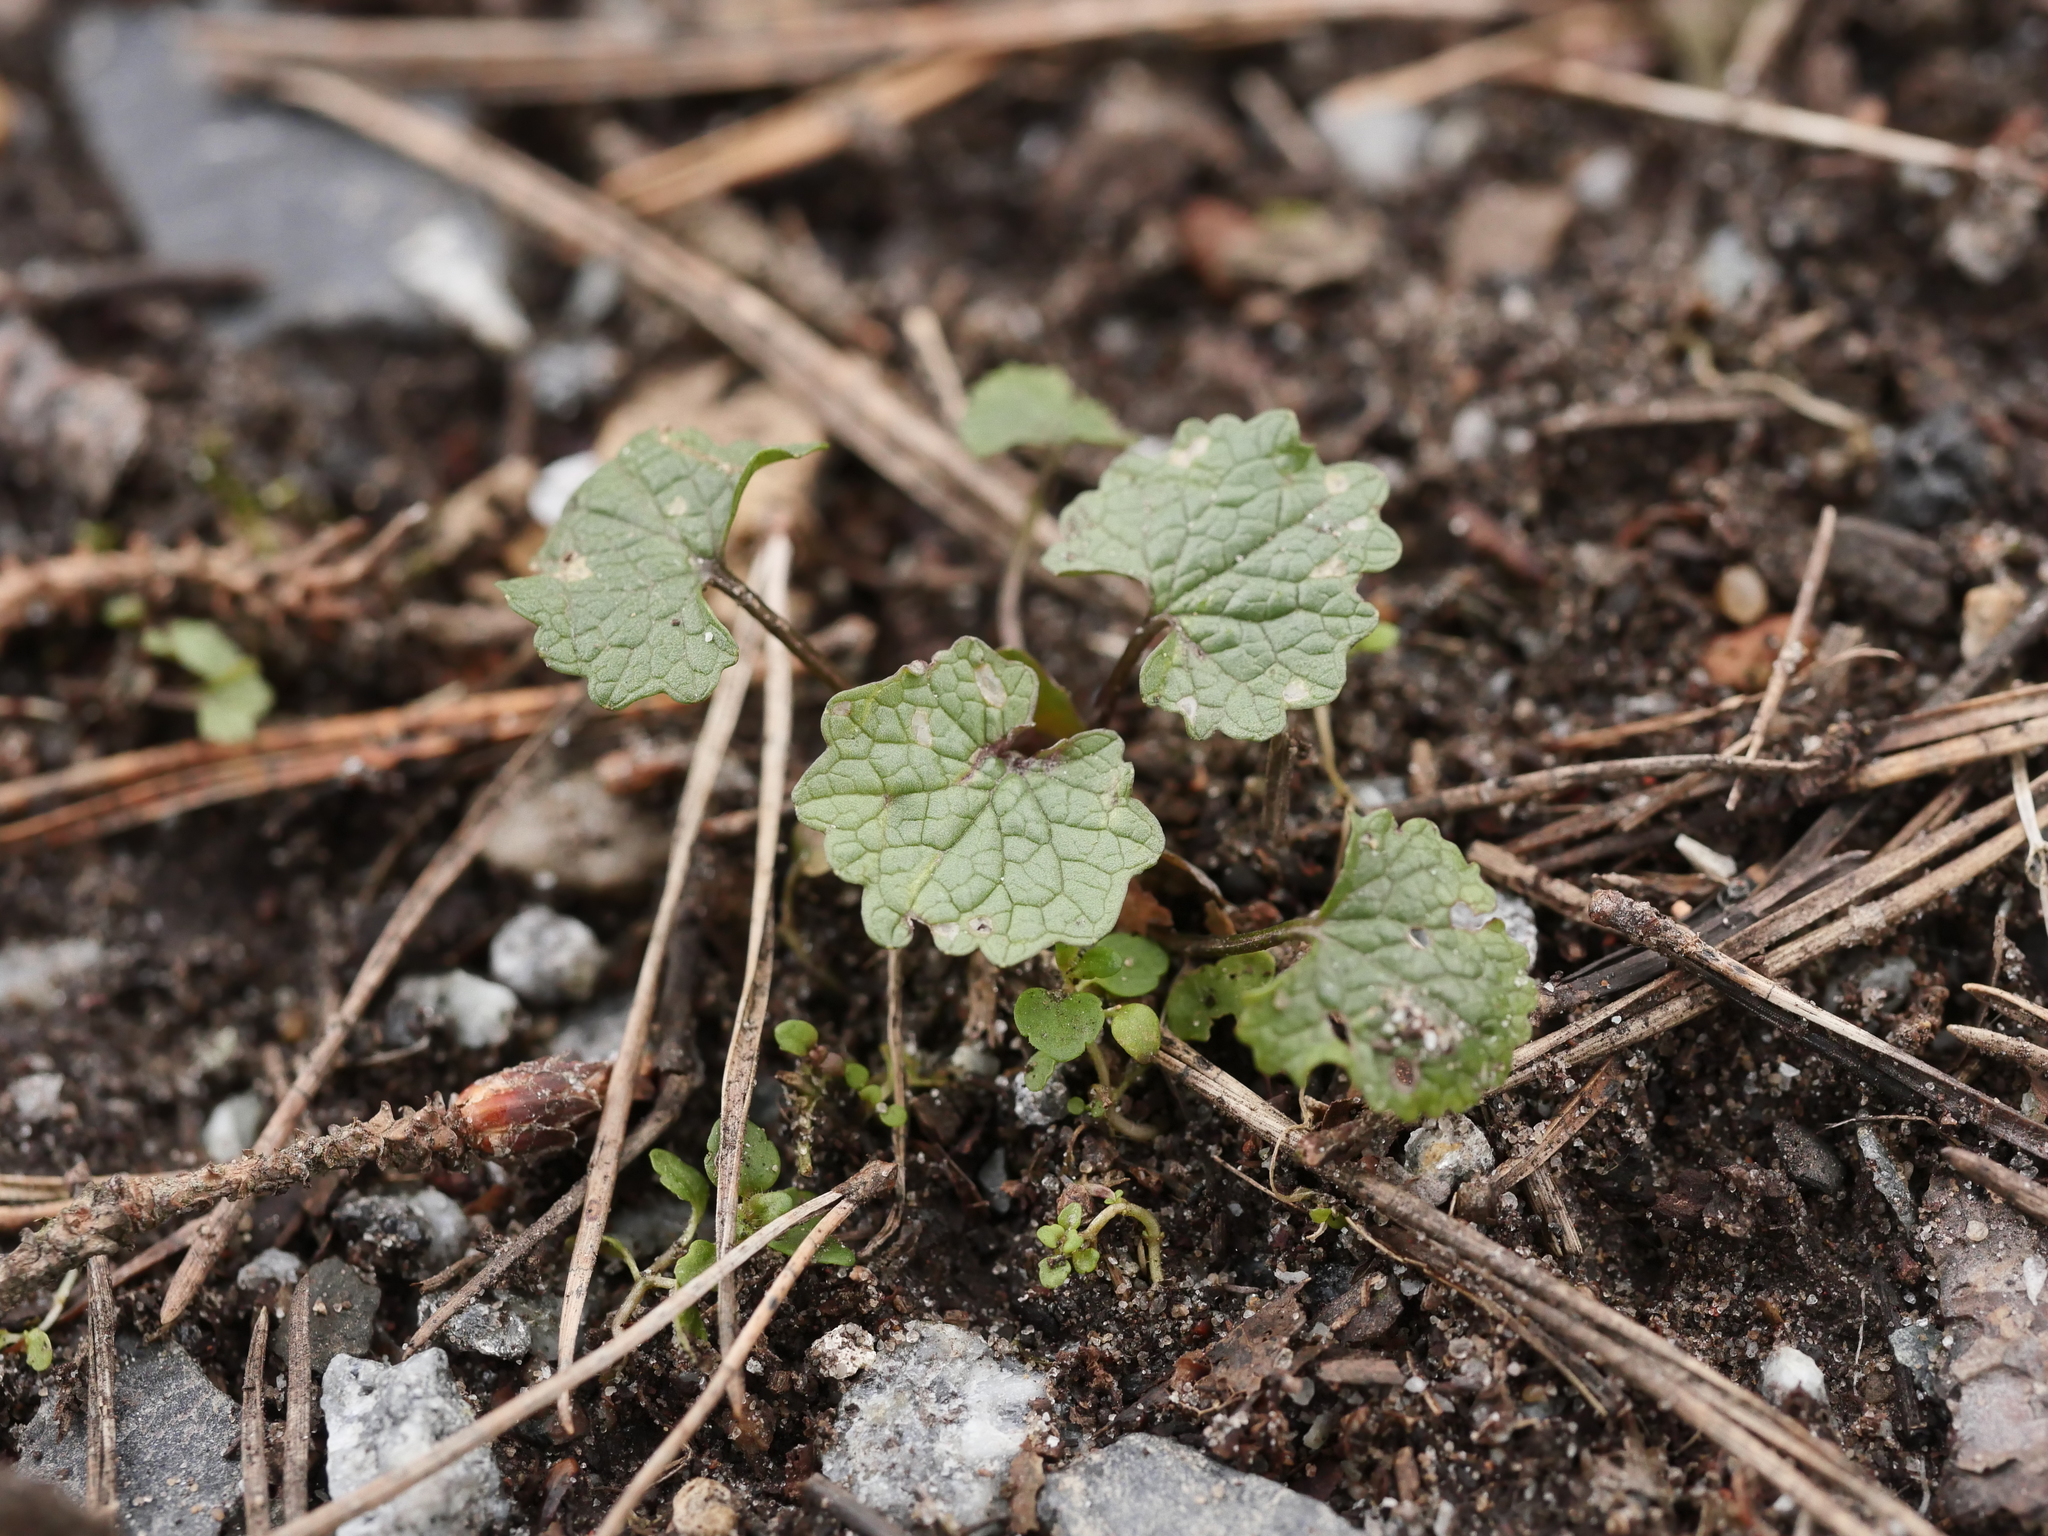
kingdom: Plantae
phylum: Tracheophyta
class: Magnoliopsida
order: Brassicales
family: Brassicaceae
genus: Alliaria
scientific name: Alliaria petiolata
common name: Garlic mustard
